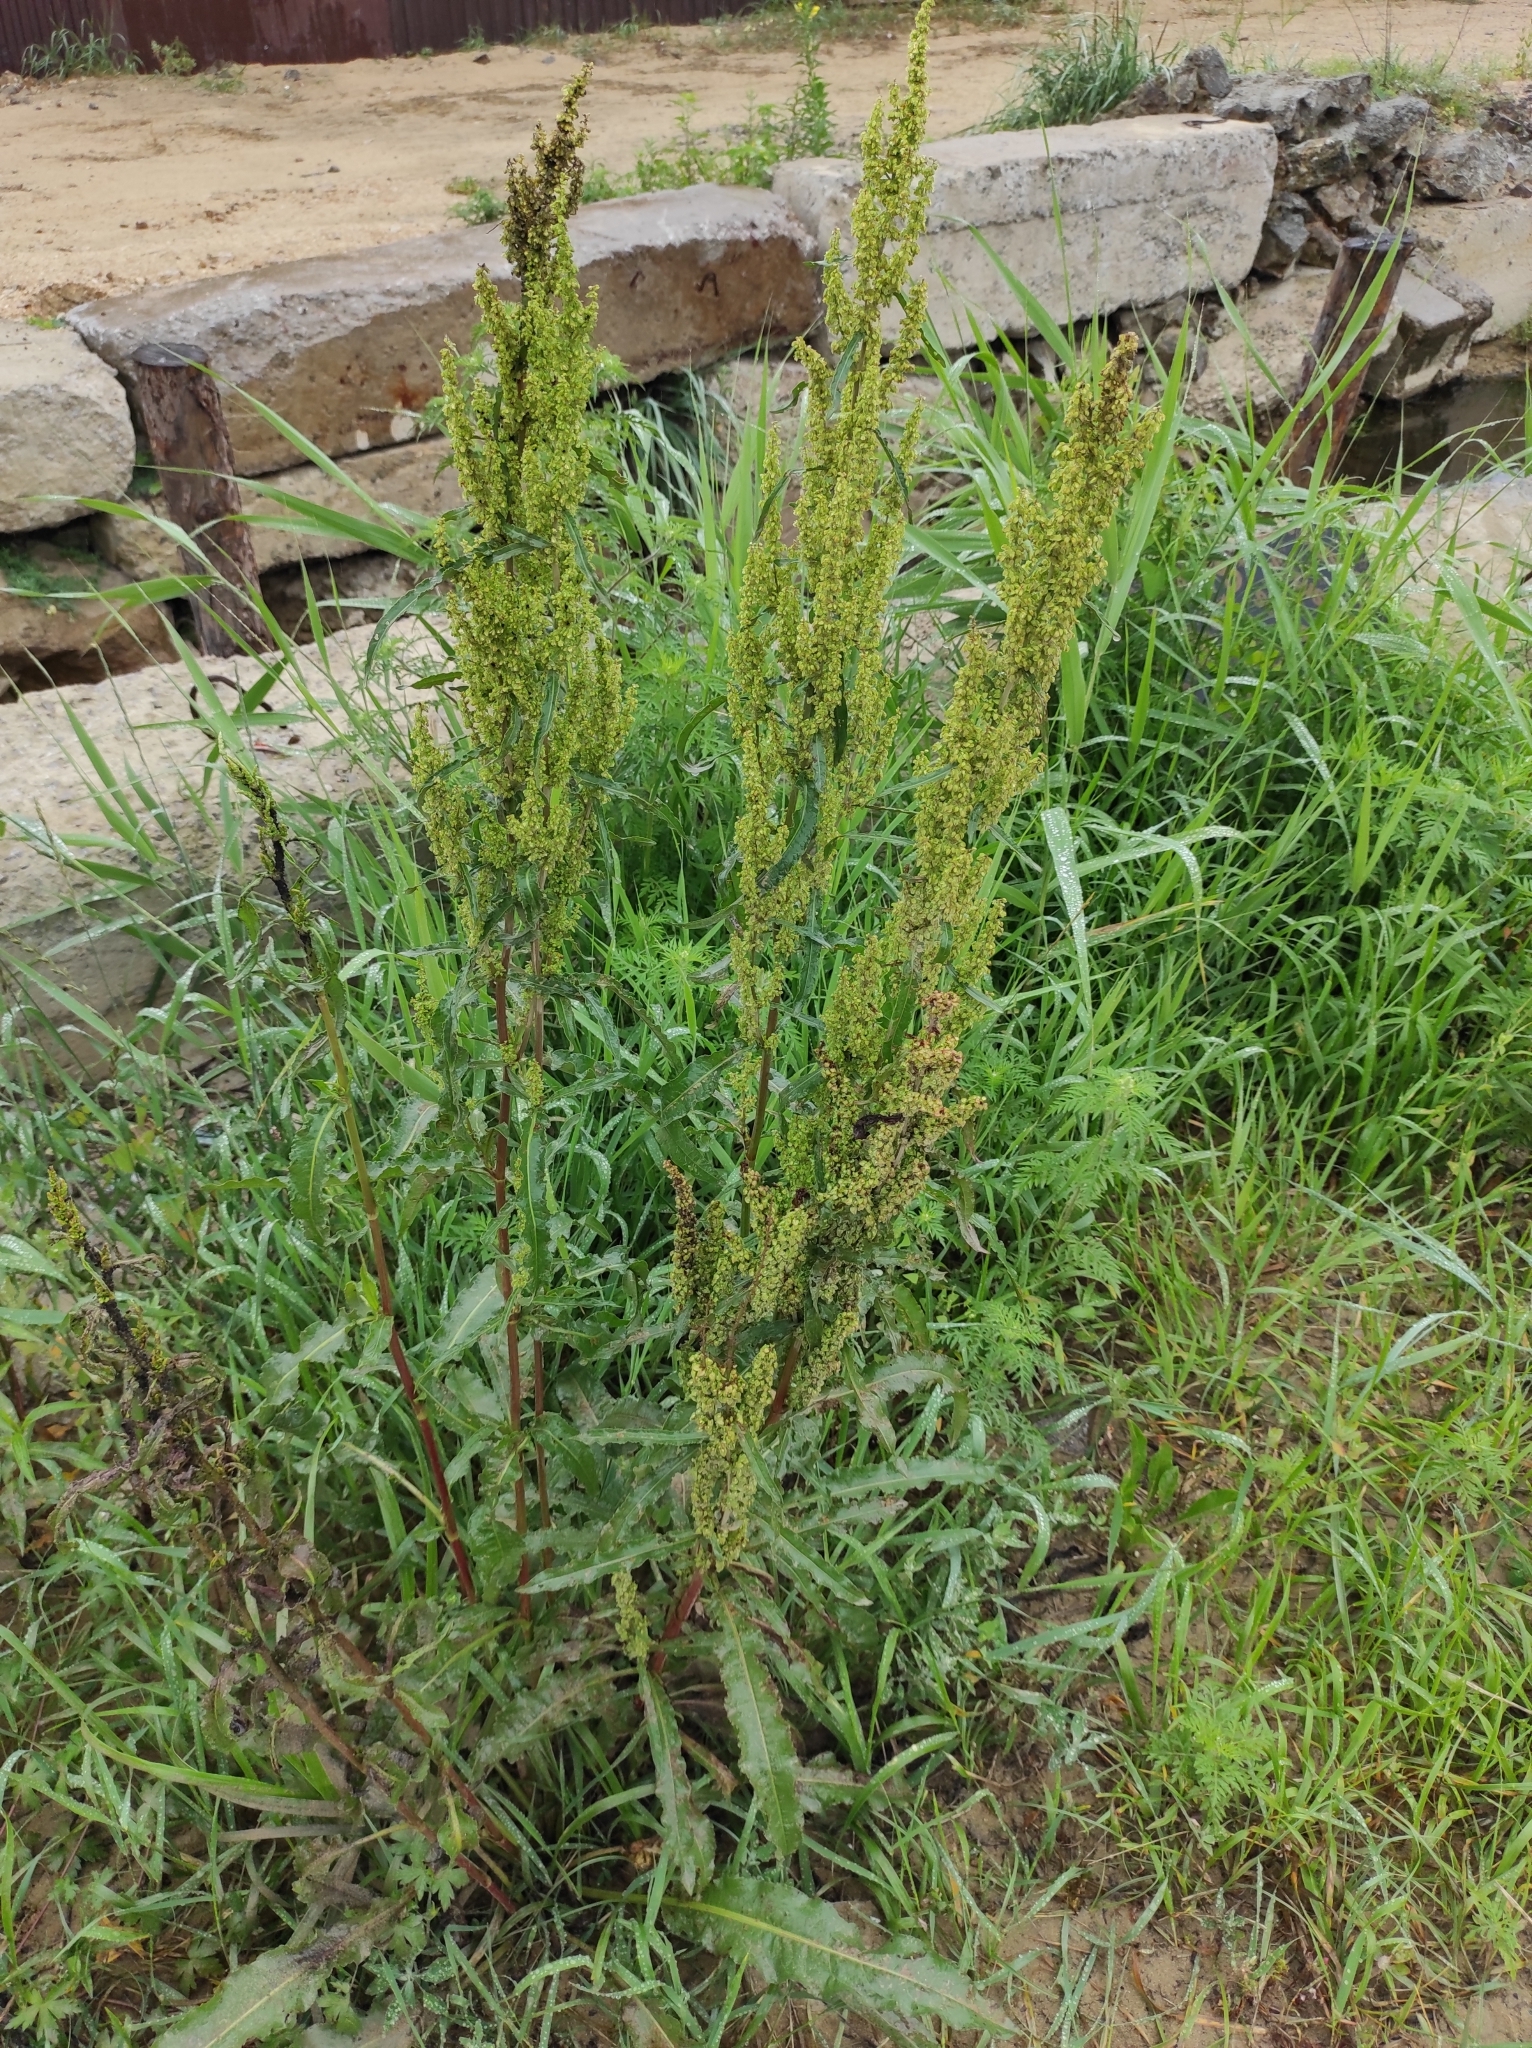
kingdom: Plantae
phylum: Tracheophyta
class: Magnoliopsida
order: Caryophyllales
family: Polygonaceae
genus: Rumex
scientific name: Rumex crispus
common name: Curled dock
